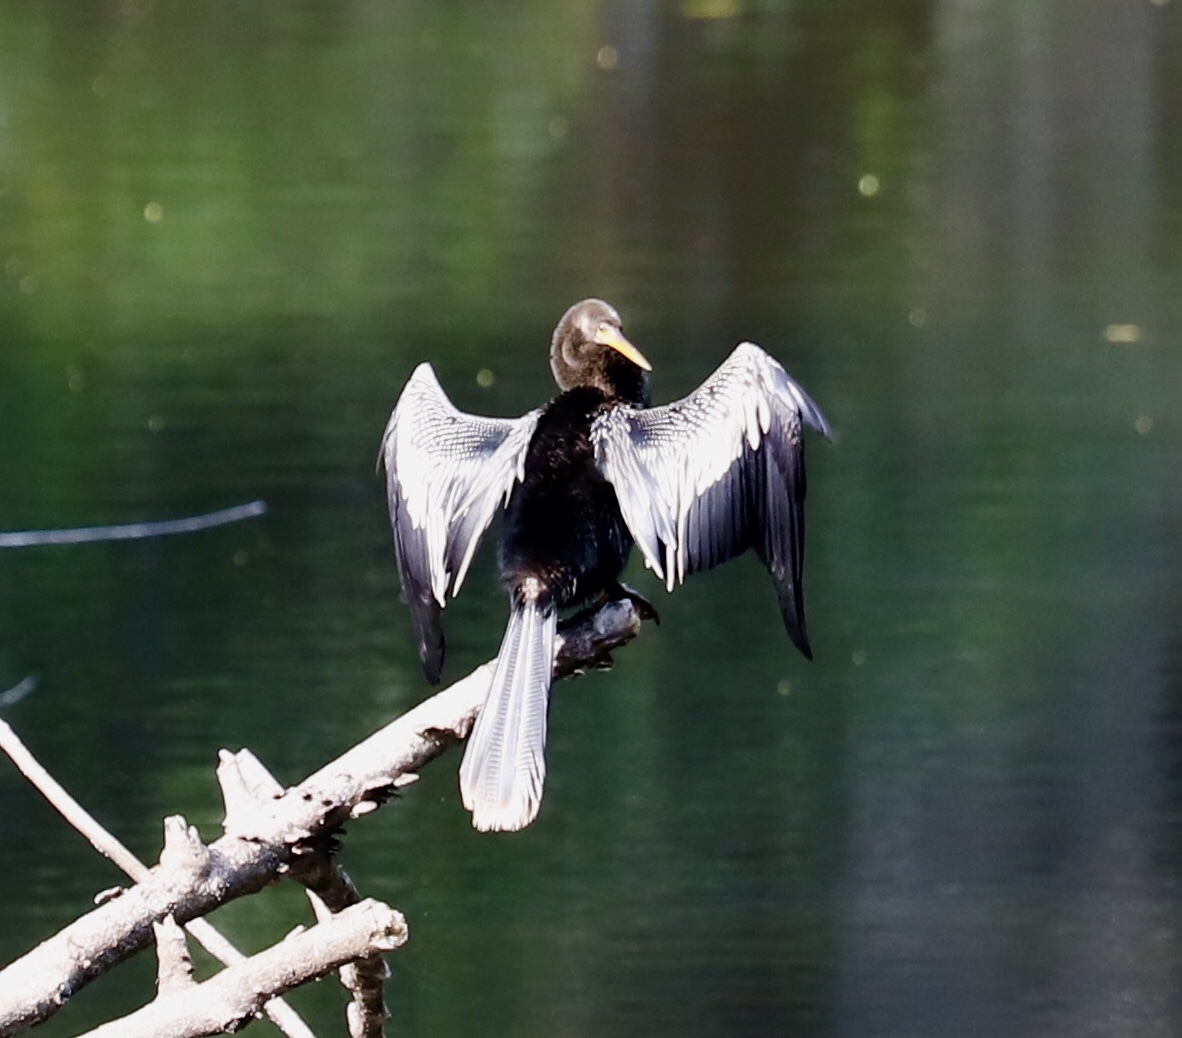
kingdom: Animalia
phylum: Chordata
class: Aves
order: Suliformes
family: Anhingidae
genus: Anhinga
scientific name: Anhinga anhinga
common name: Anhinga
